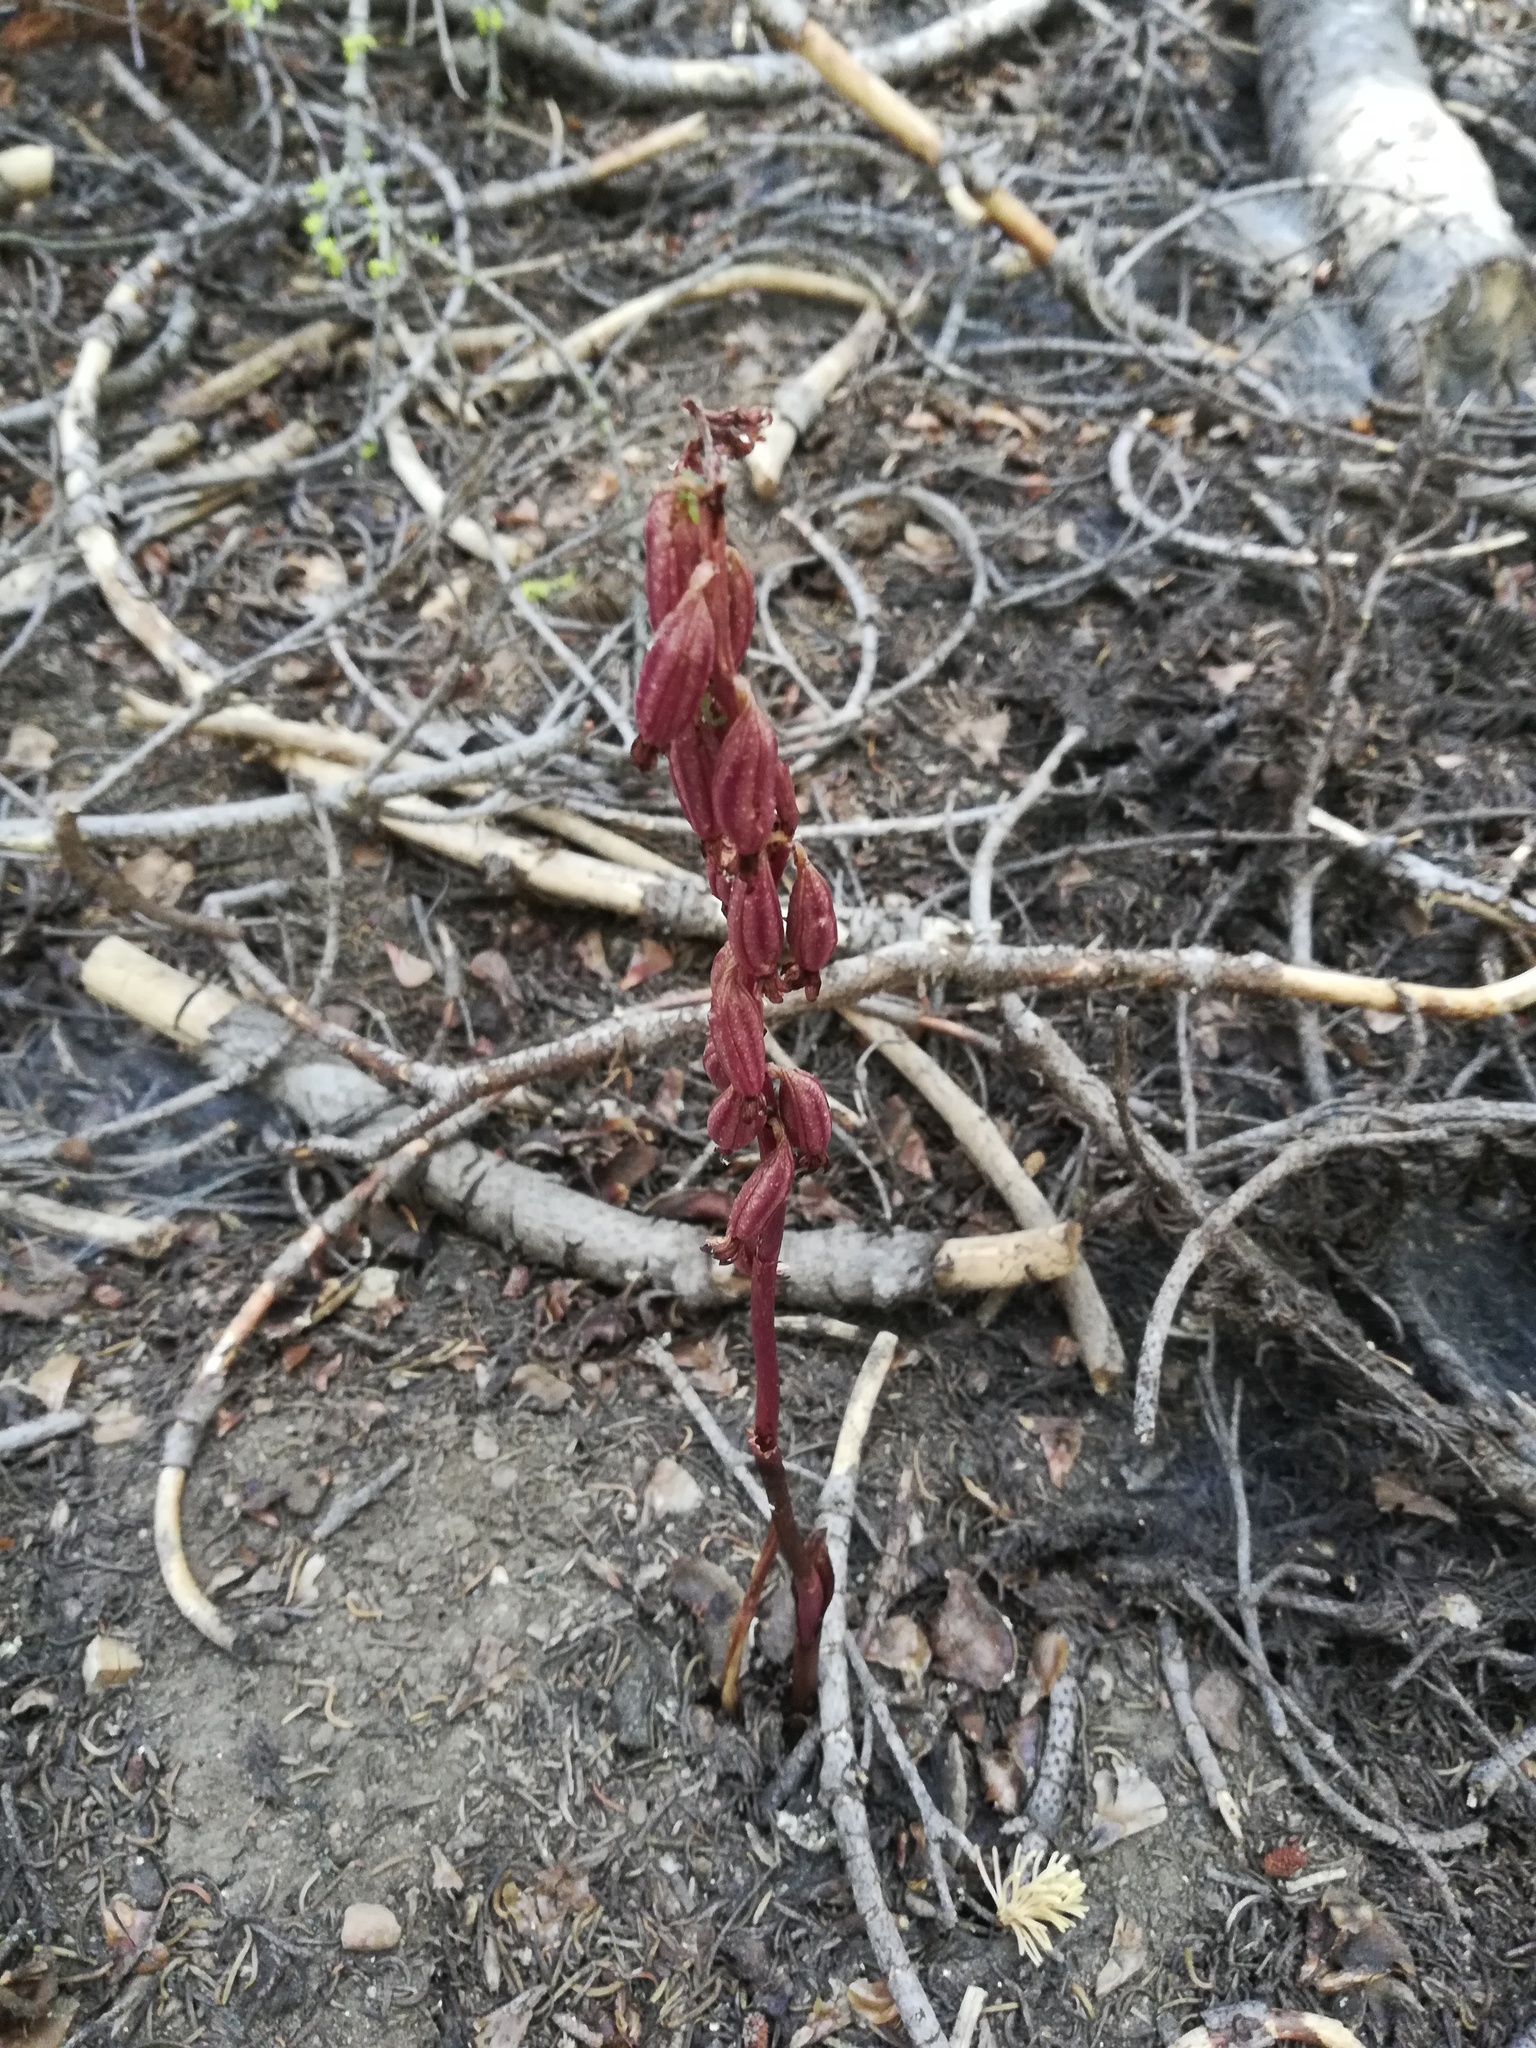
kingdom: Plantae
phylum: Tracheophyta
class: Magnoliopsida
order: Ericales
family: Ericaceae
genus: Pterospora
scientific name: Pterospora andromedea
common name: Giant bird's-nest
